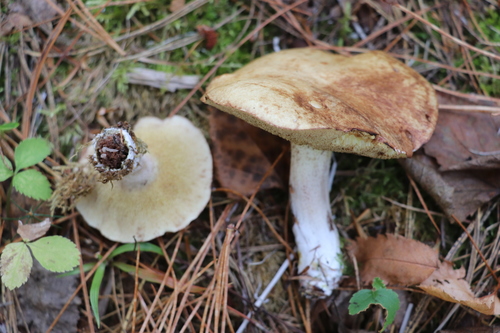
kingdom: Fungi
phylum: Basidiomycota
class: Agaricomycetes
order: Boletales
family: Suillaceae
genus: Suillus
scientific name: Suillus placidus
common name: Slippery white bolete
